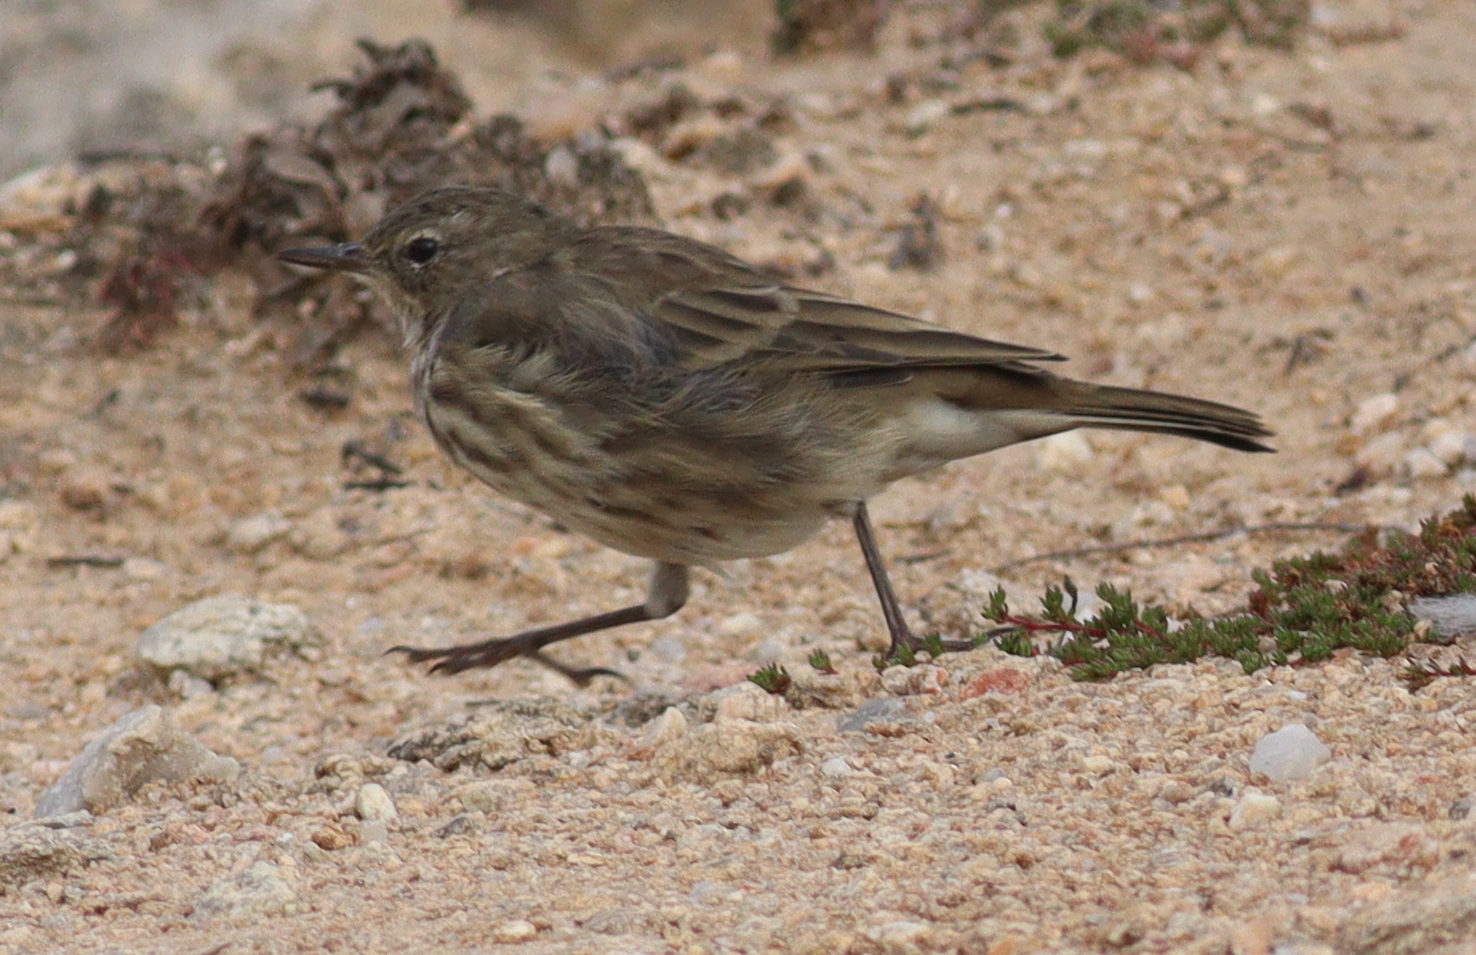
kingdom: Animalia
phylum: Chordata
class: Aves
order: Passeriformes
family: Motacillidae
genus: Anthus
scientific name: Anthus petrosus
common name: Eurasian rock pipit
